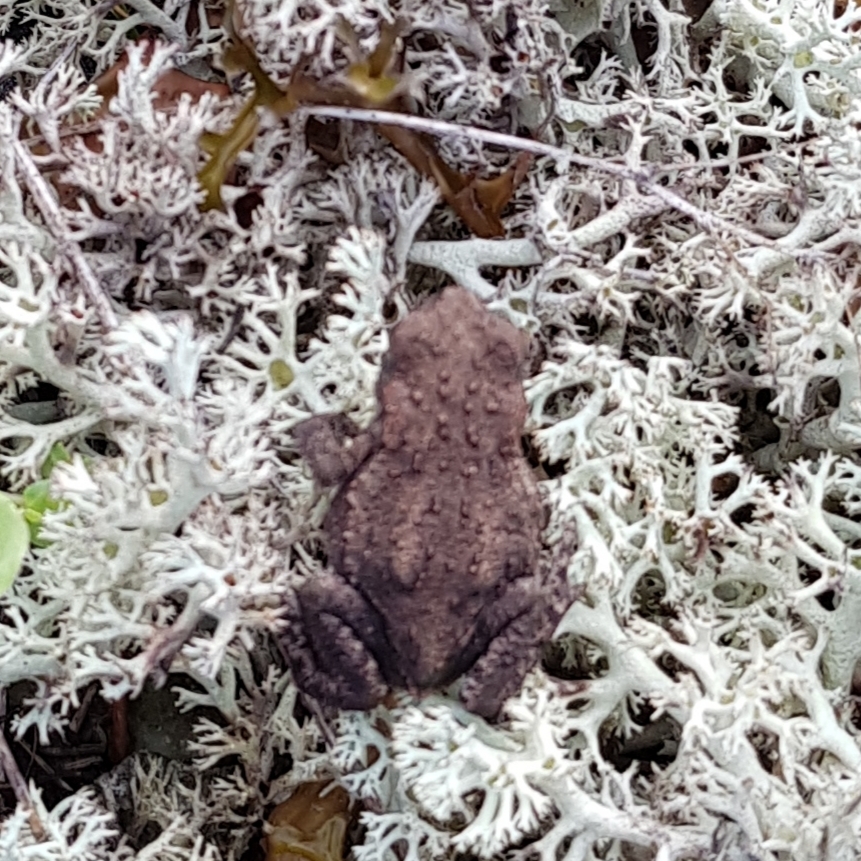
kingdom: Animalia
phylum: Chordata
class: Amphibia
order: Anura
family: Bufonidae
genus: Bufo
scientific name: Bufo bufo
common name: Common toad
